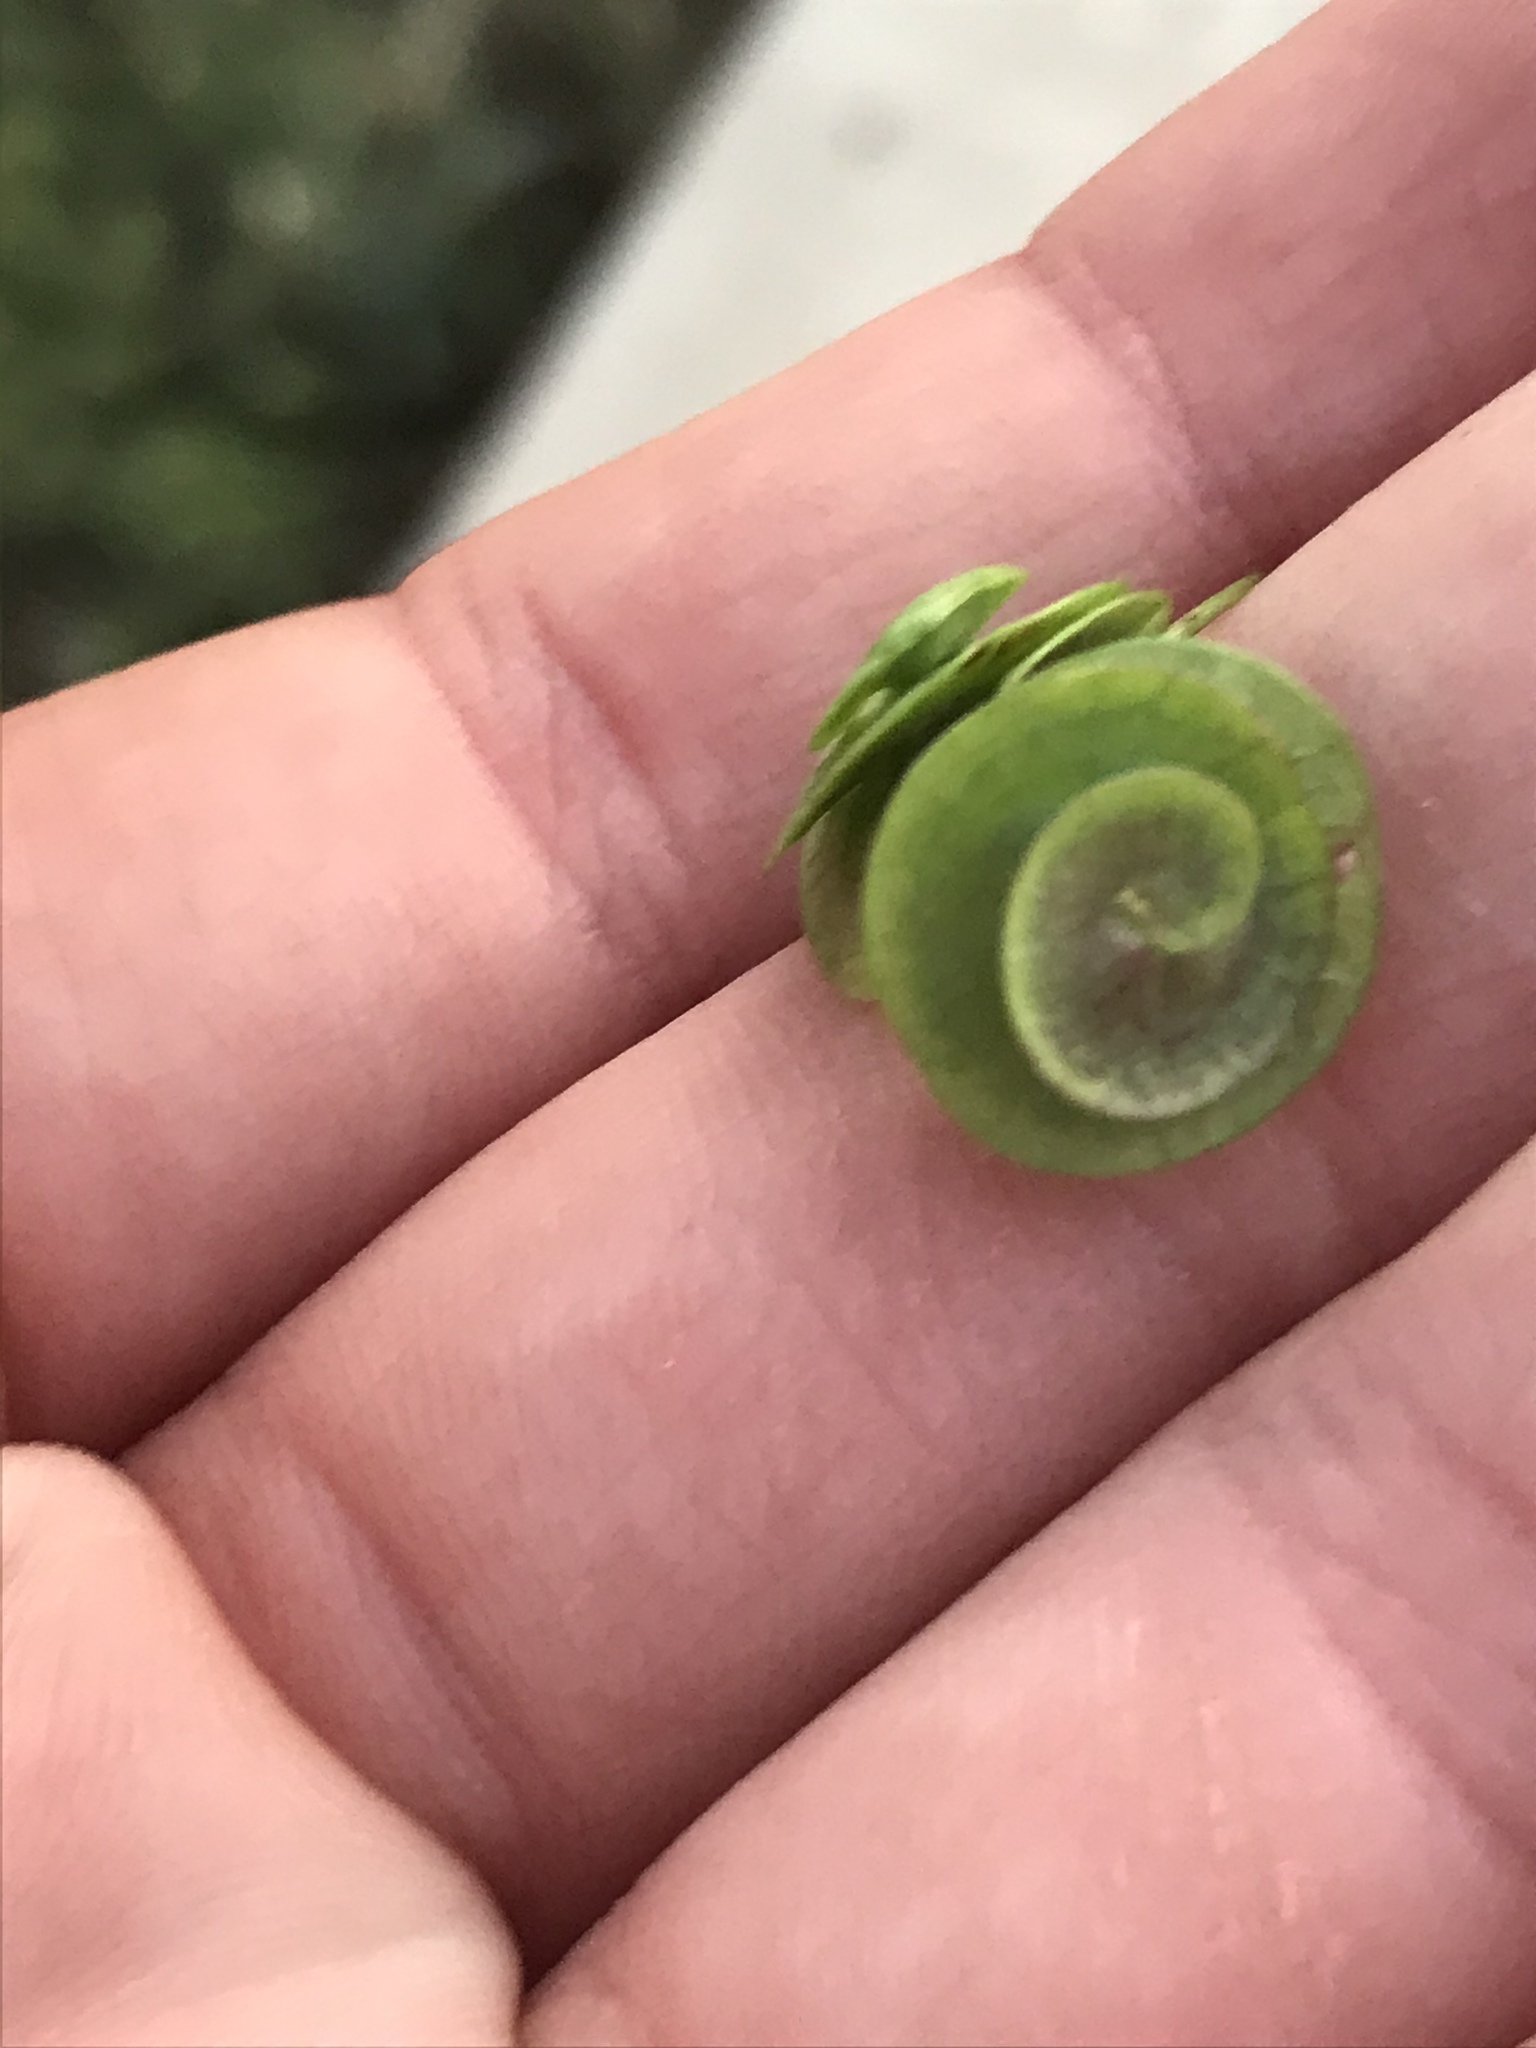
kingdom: Plantae
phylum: Tracheophyta
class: Magnoliopsida
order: Fabales
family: Fabaceae
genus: Medicago
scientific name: Medicago orbicularis
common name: Button medick
